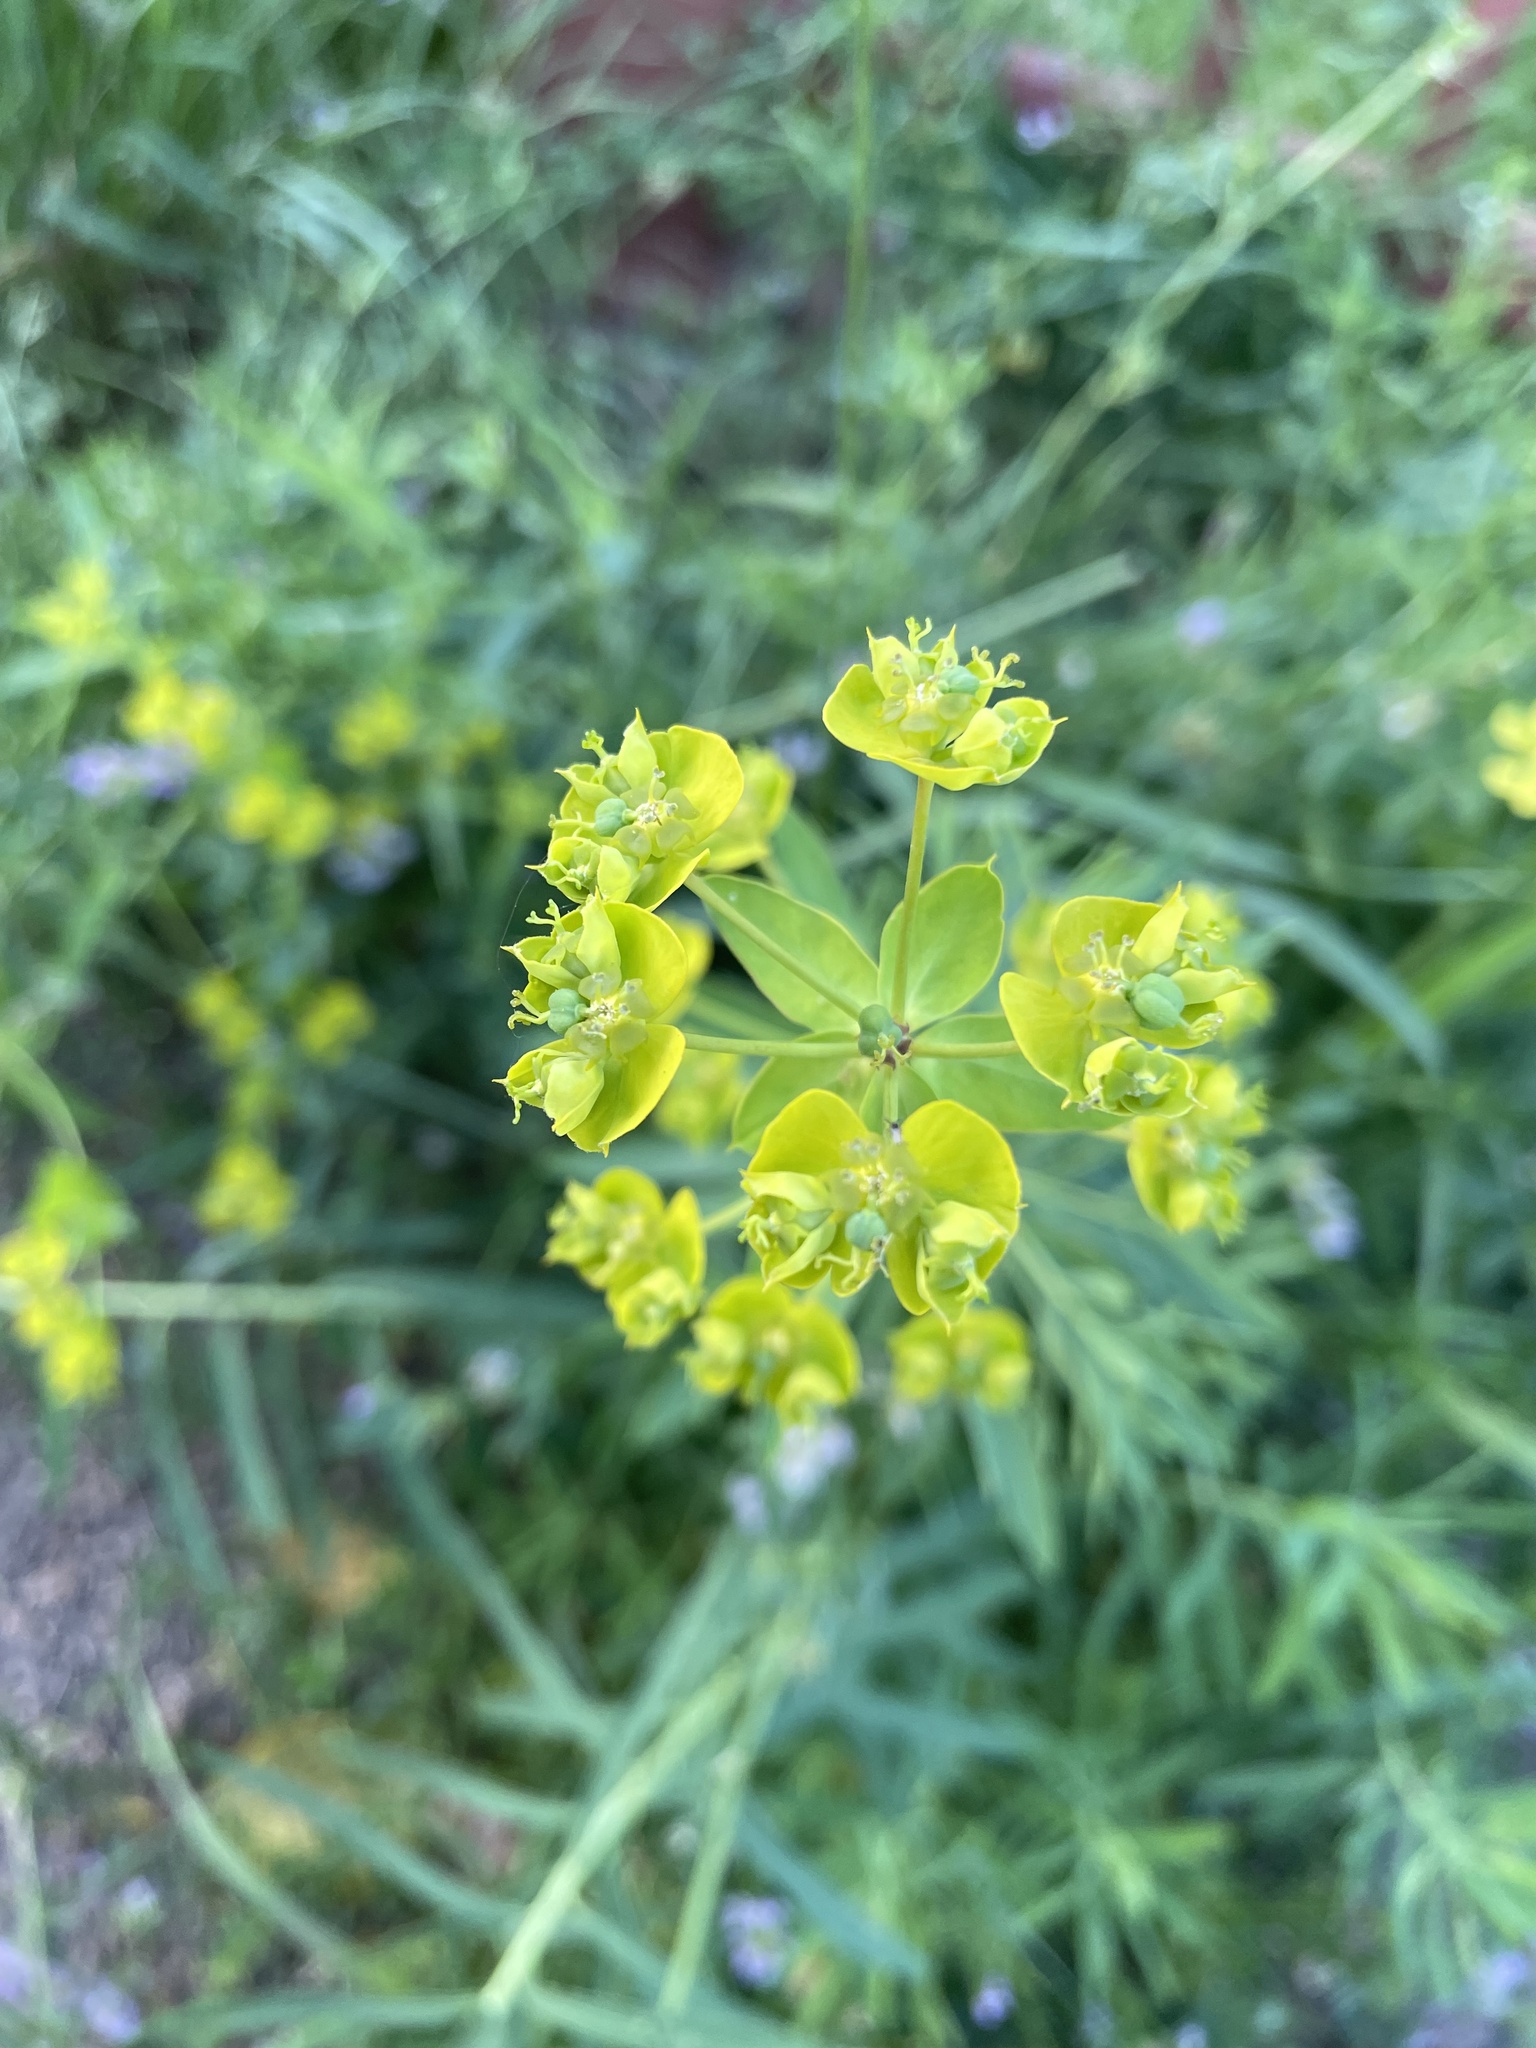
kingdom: Plantae
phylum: Tracheophyta
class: Magnoliopsida
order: Malpighiales
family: Euphorbiaceae
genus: Euphorbia
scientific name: Euphorbia virgata
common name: Leafy spurge
